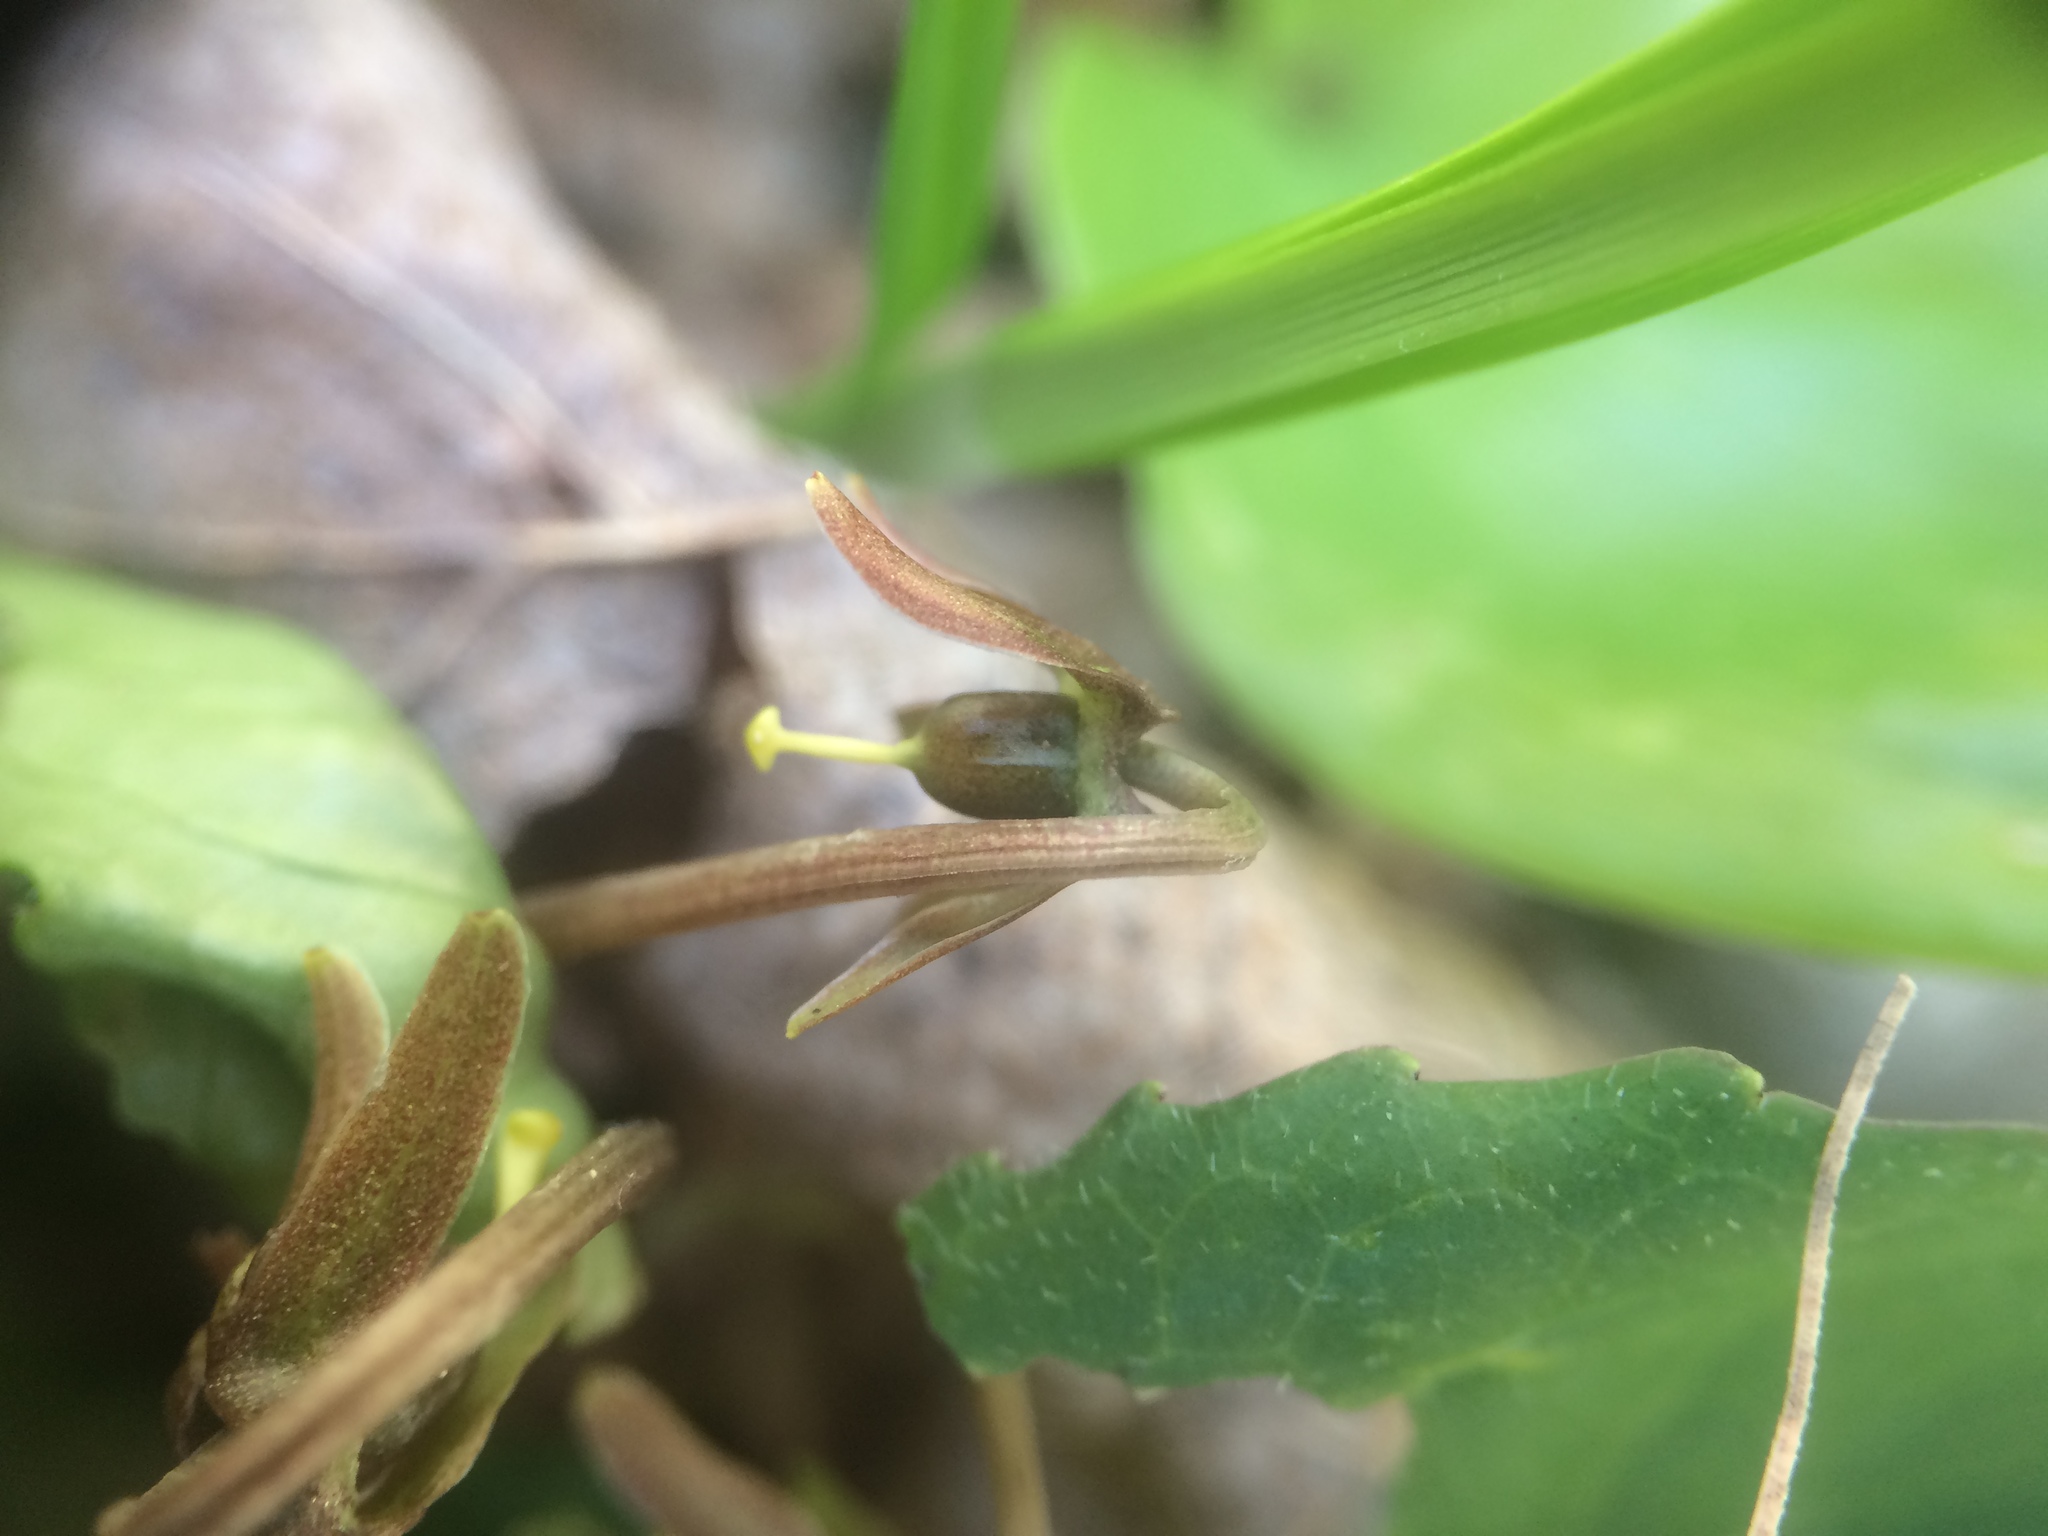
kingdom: Plantae
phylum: Tracheophyta
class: Magnoliopsida
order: Malpighiales
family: Violaceae
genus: Viola
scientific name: Viola rotundifolia
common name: Early yellow violet
